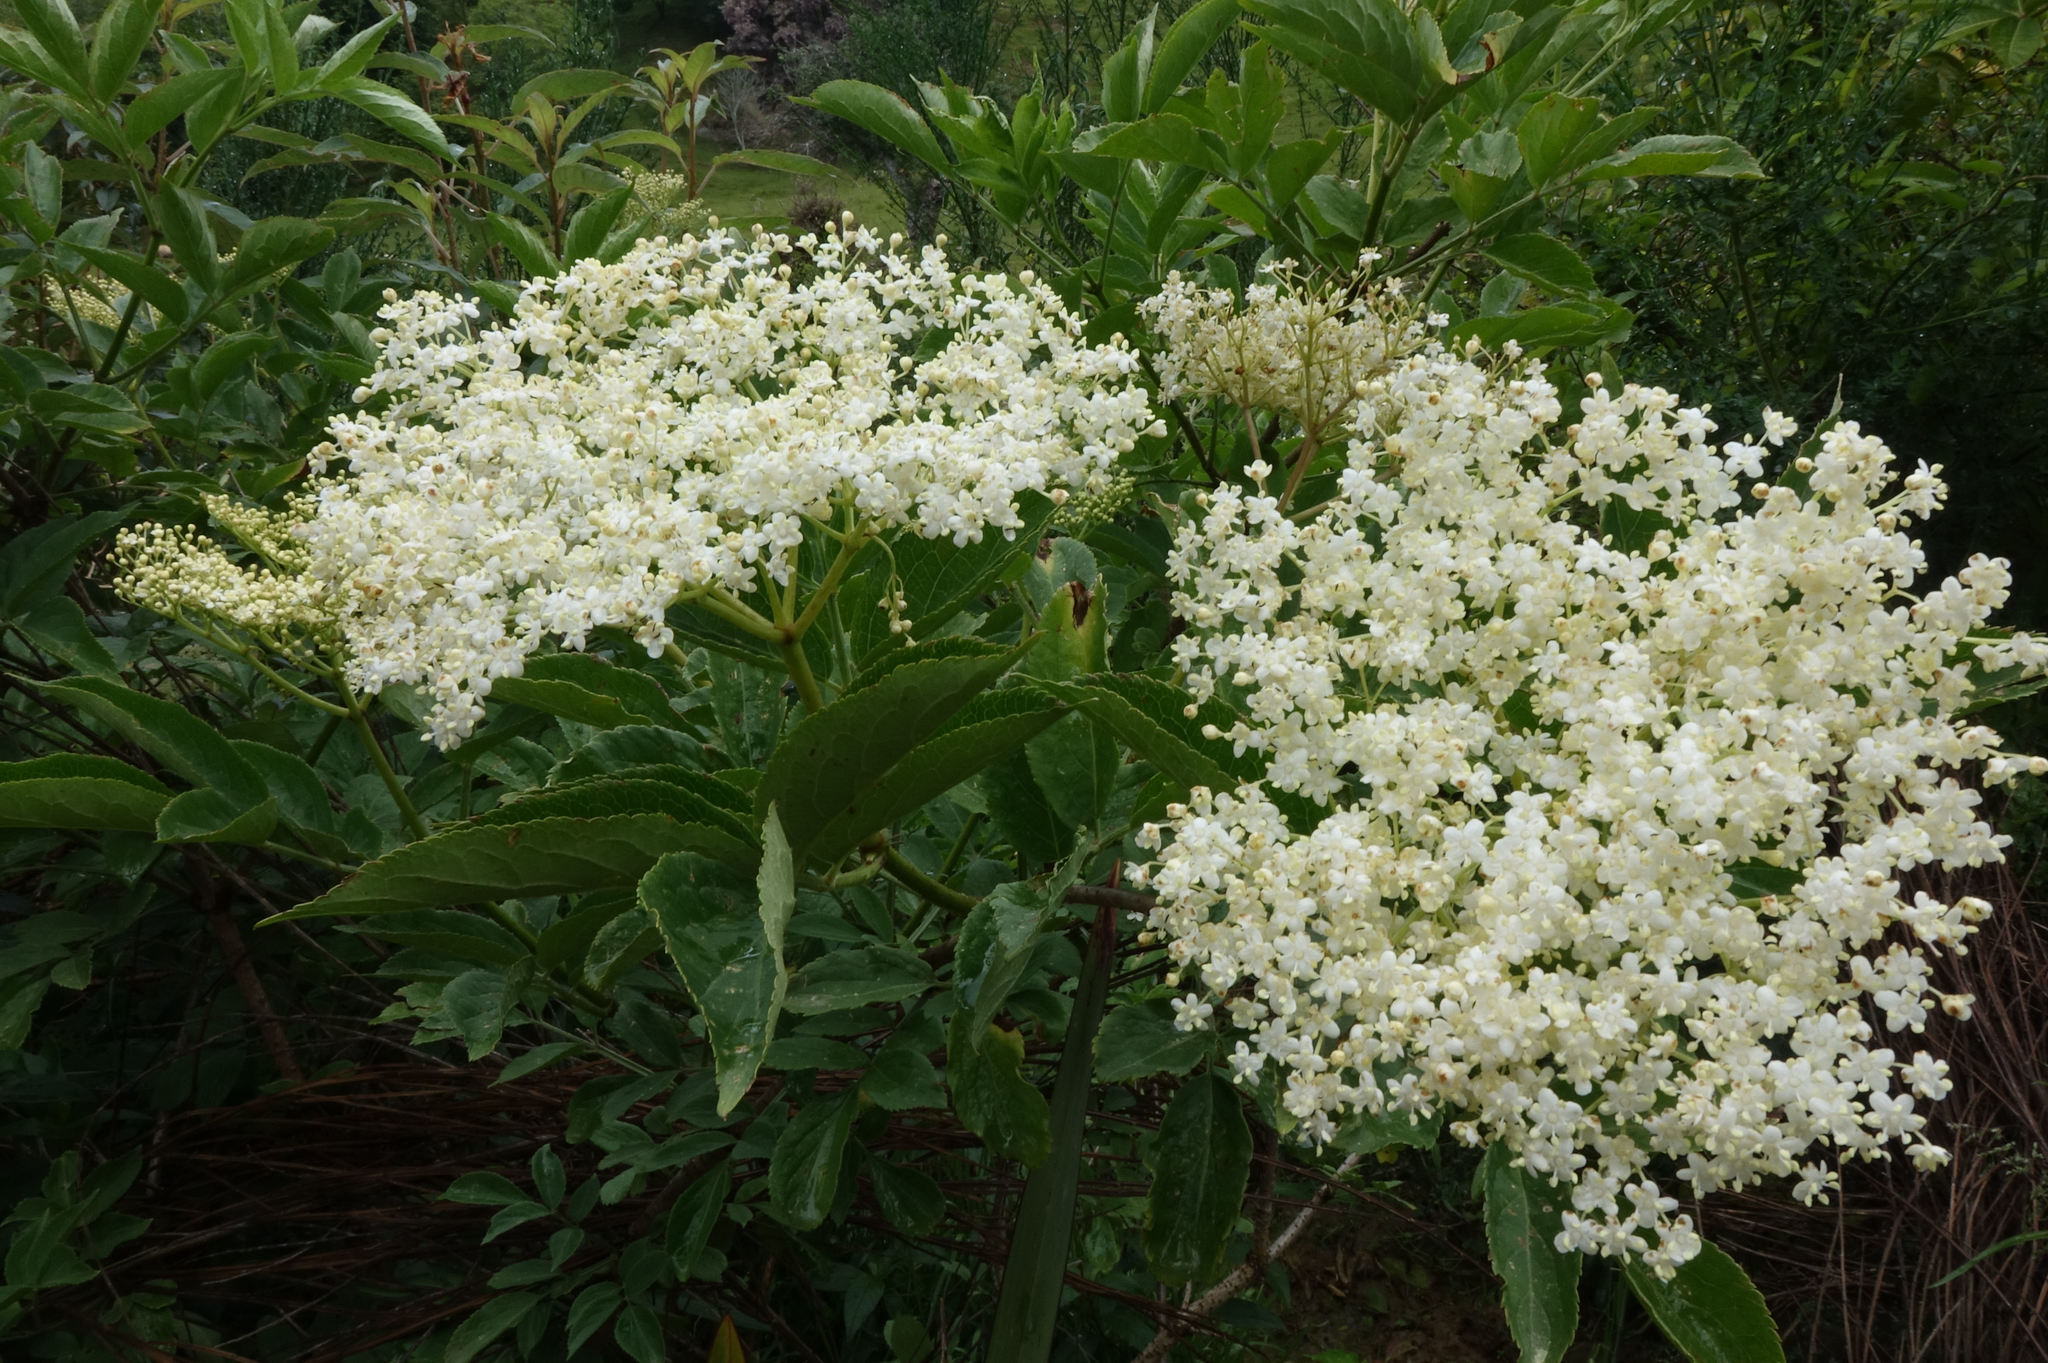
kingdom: Plantae
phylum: Tracheophyta
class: Magnoliopsida
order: Dipsacales
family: Viburnaceae
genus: Sambucus
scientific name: Sambucus nigra
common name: Elder
